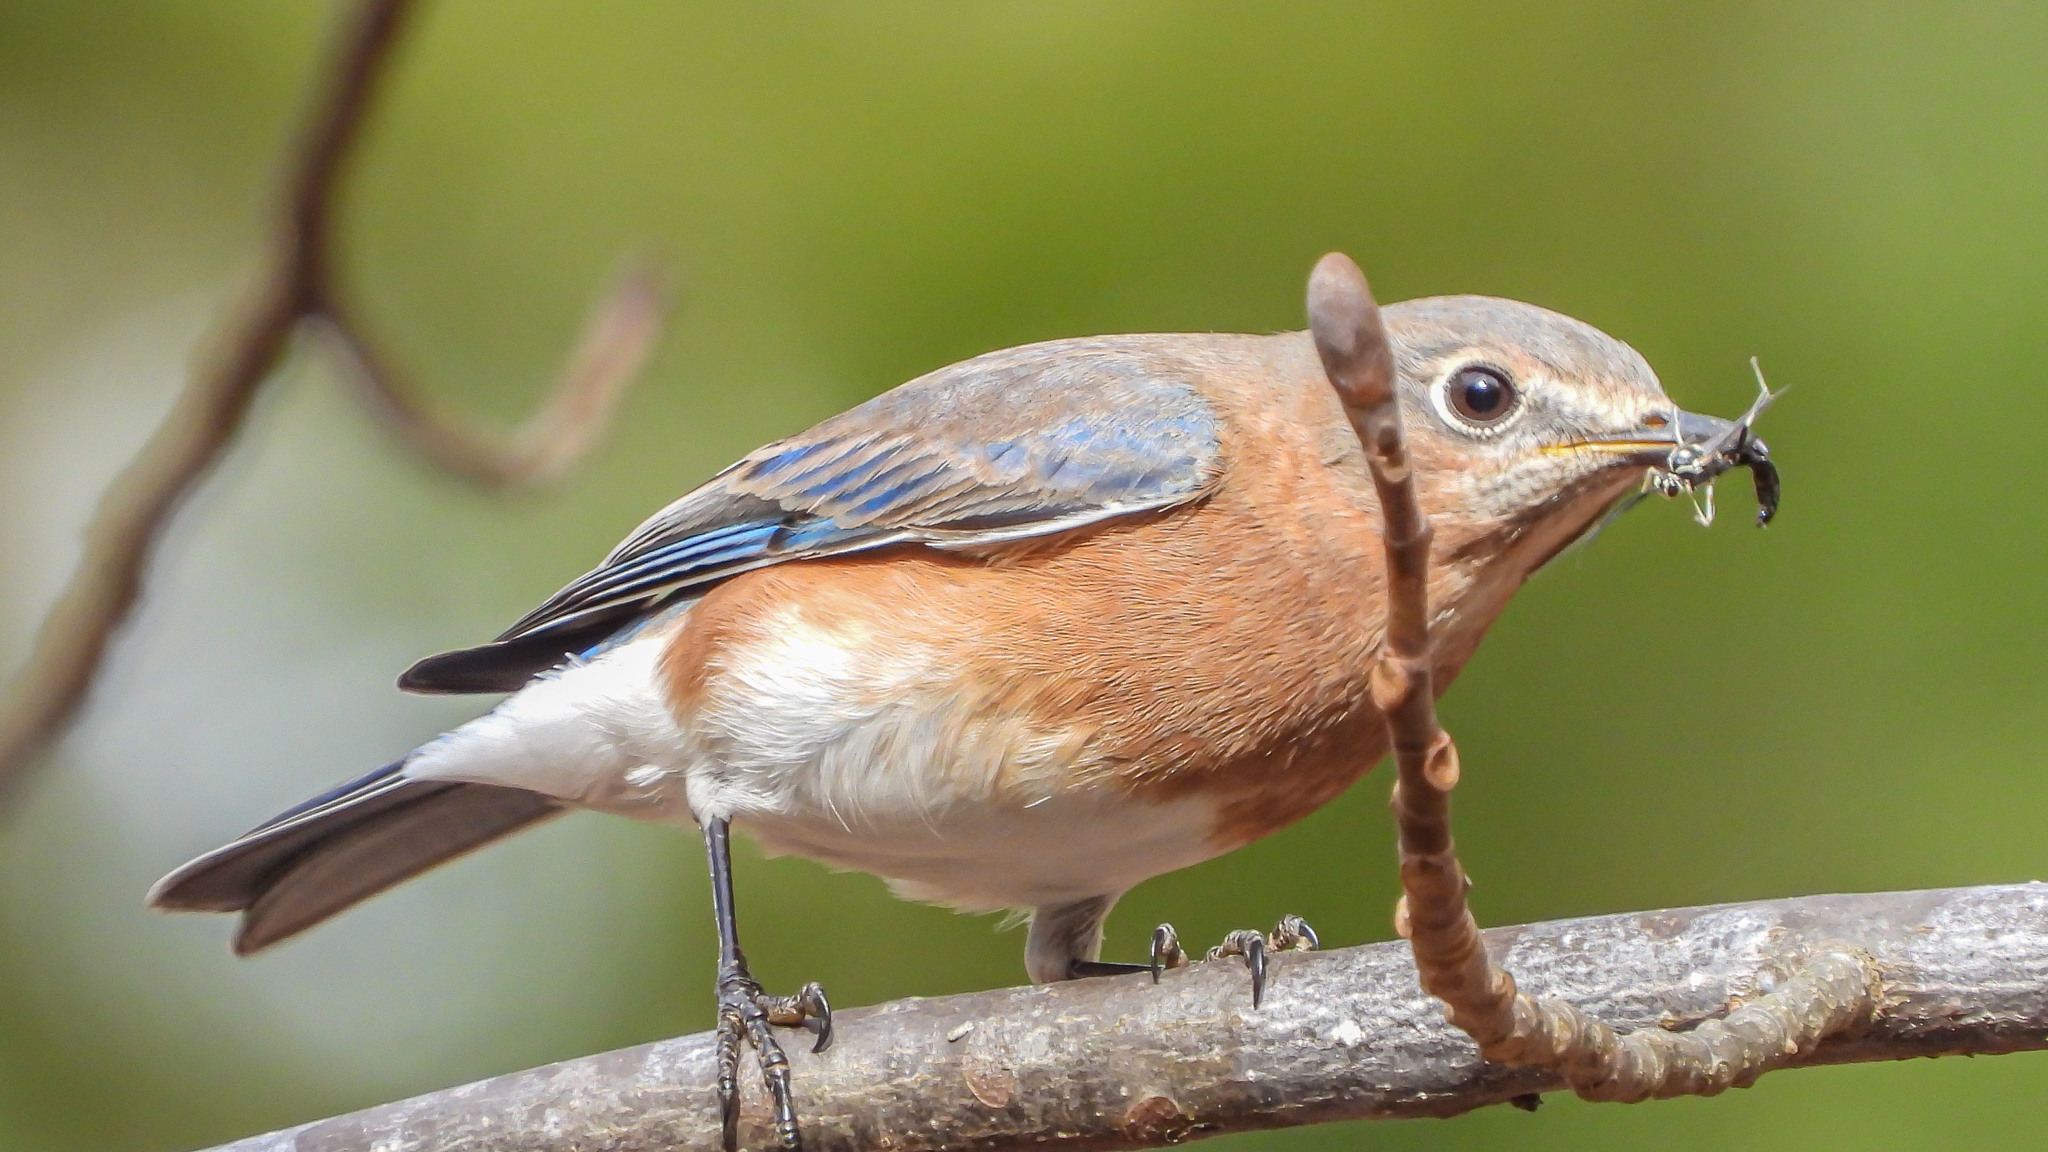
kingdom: Animalia
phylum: Chordata
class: Aves
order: Passeriformes
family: Turdidae
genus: Sialia
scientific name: Sialia sialis
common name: Eastern bluebird
